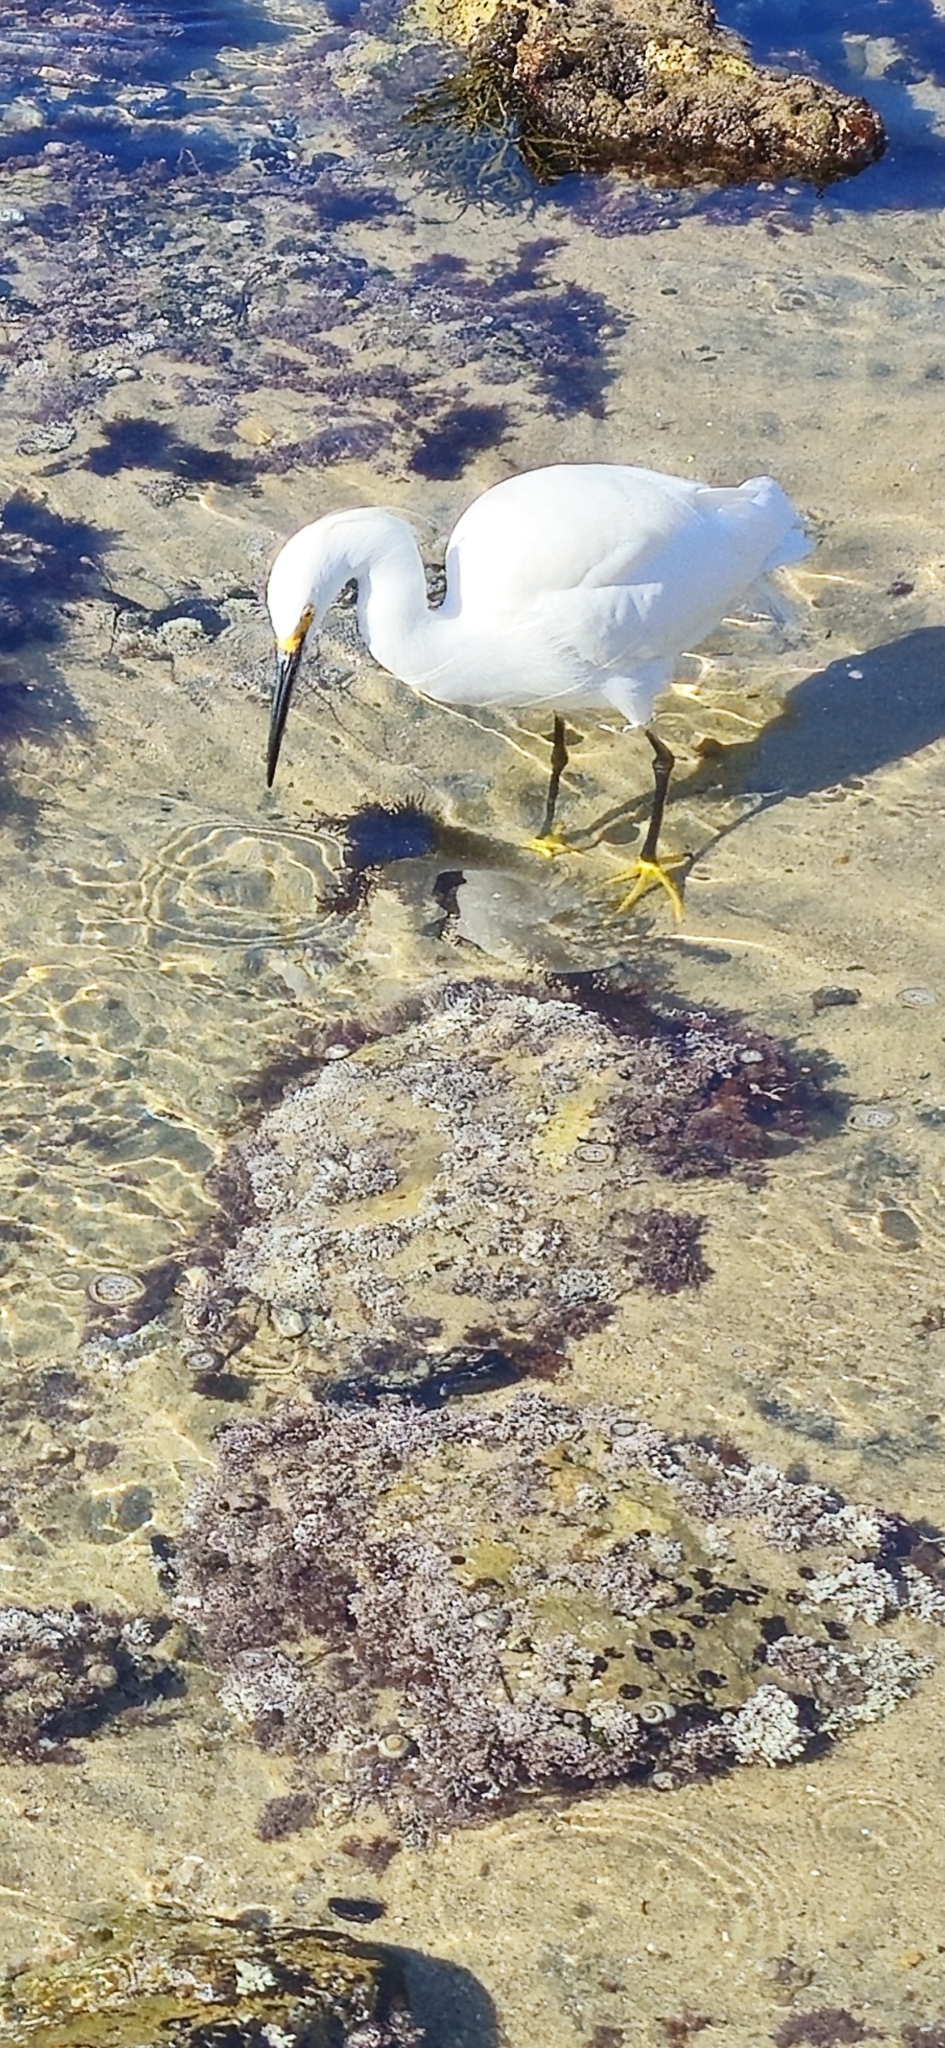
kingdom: Animalia
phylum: Chordata
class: Aves
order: Pelecaniformes
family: Ardeidae
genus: Egretta
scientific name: Egretta thula
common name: Snowy egret
